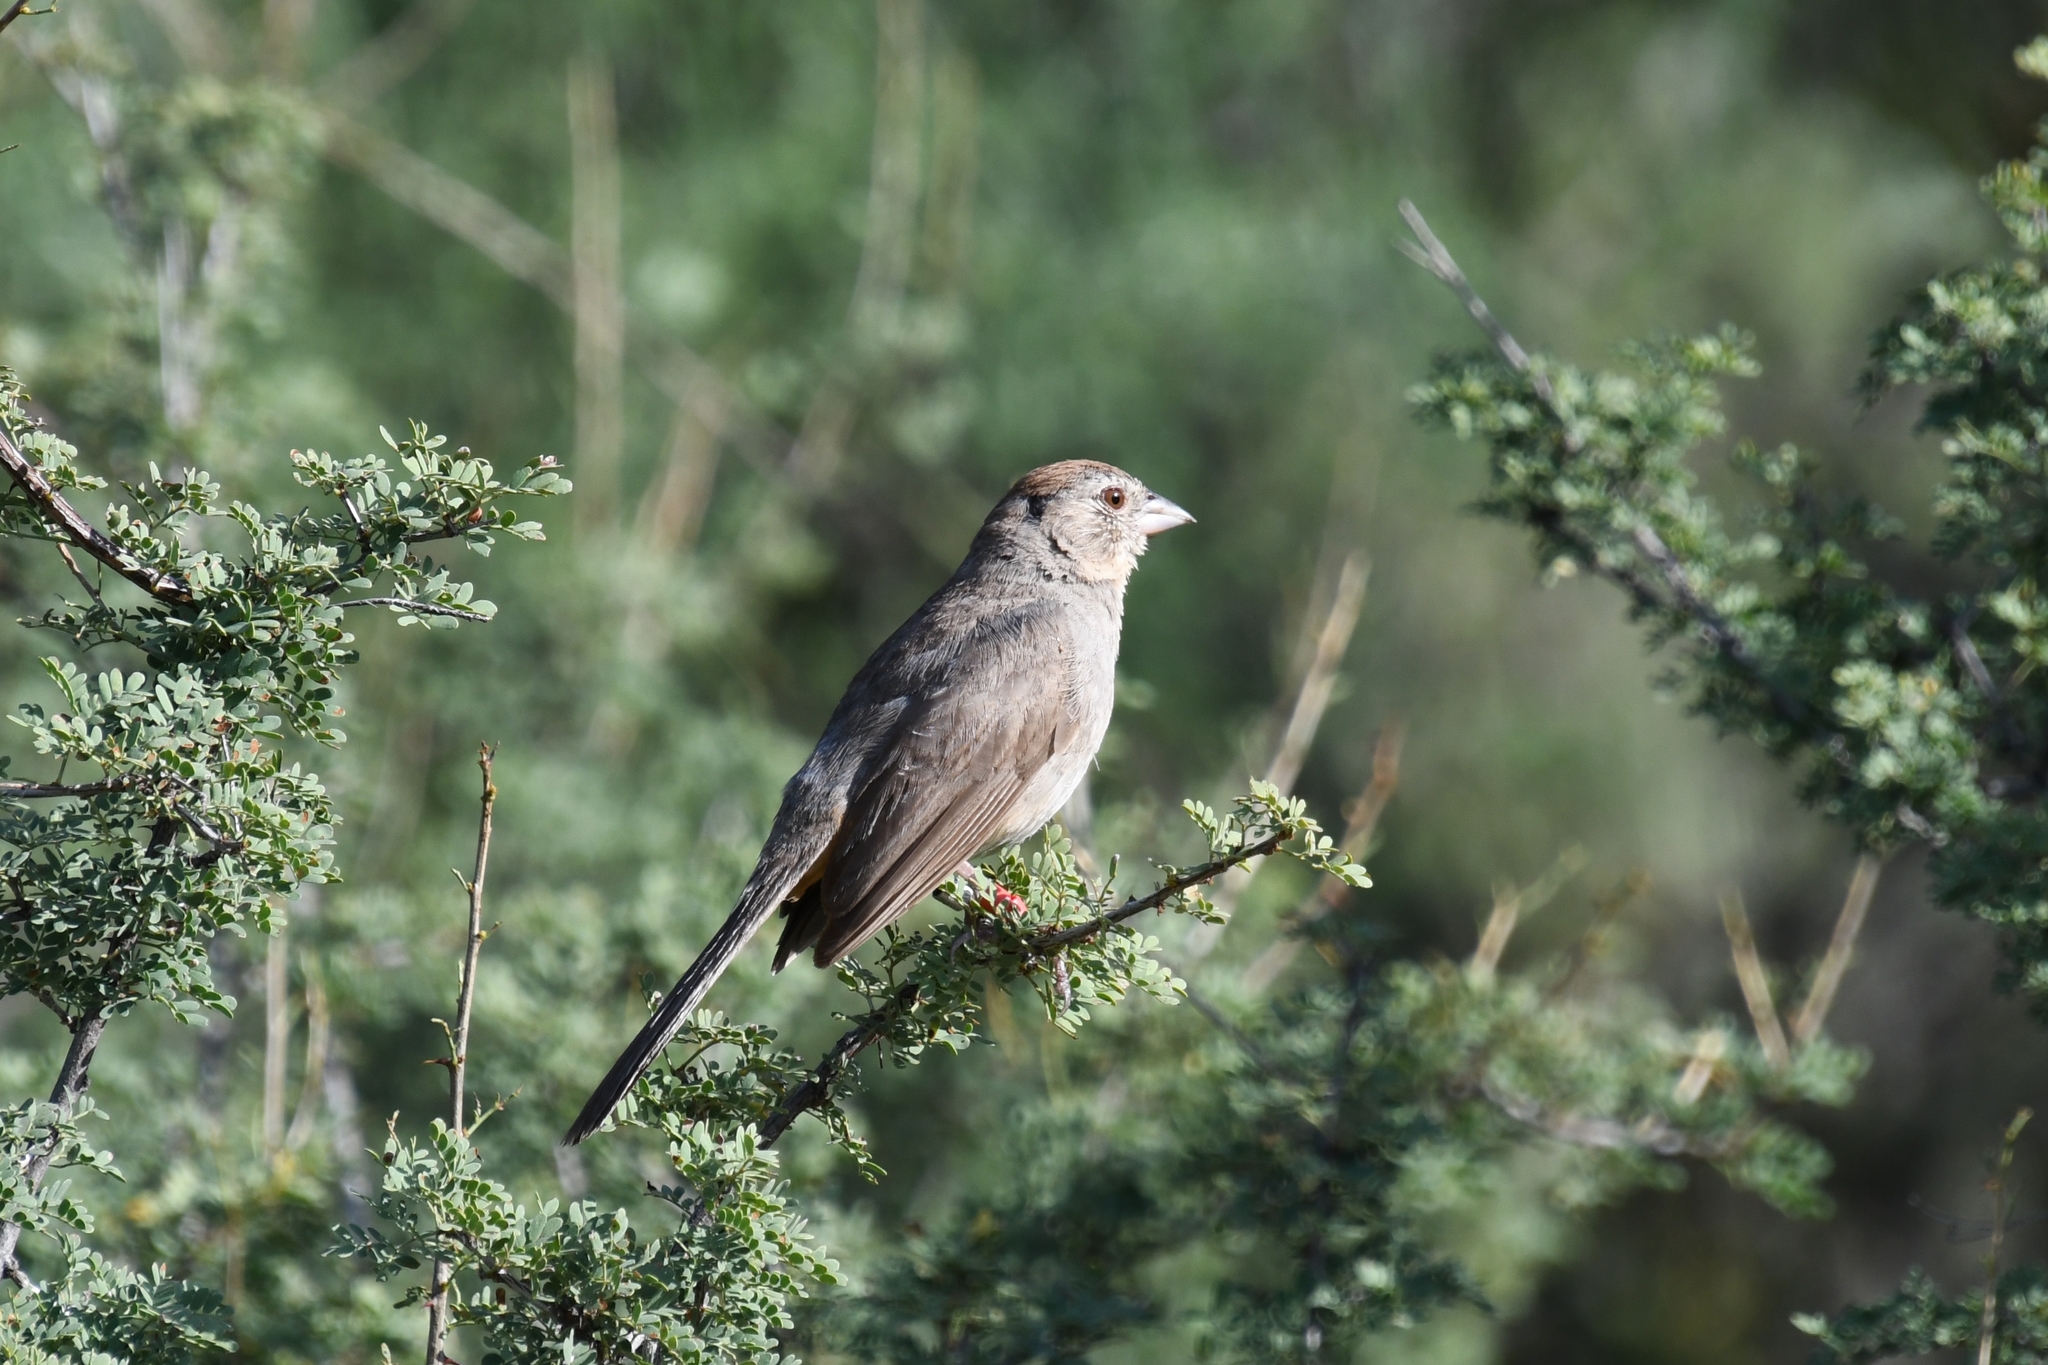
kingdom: Animalia
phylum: Chordata
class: Aves
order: Passeriformes
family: Passerellidae
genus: Melozone
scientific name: Melozone fusca
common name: Canyon towhee
